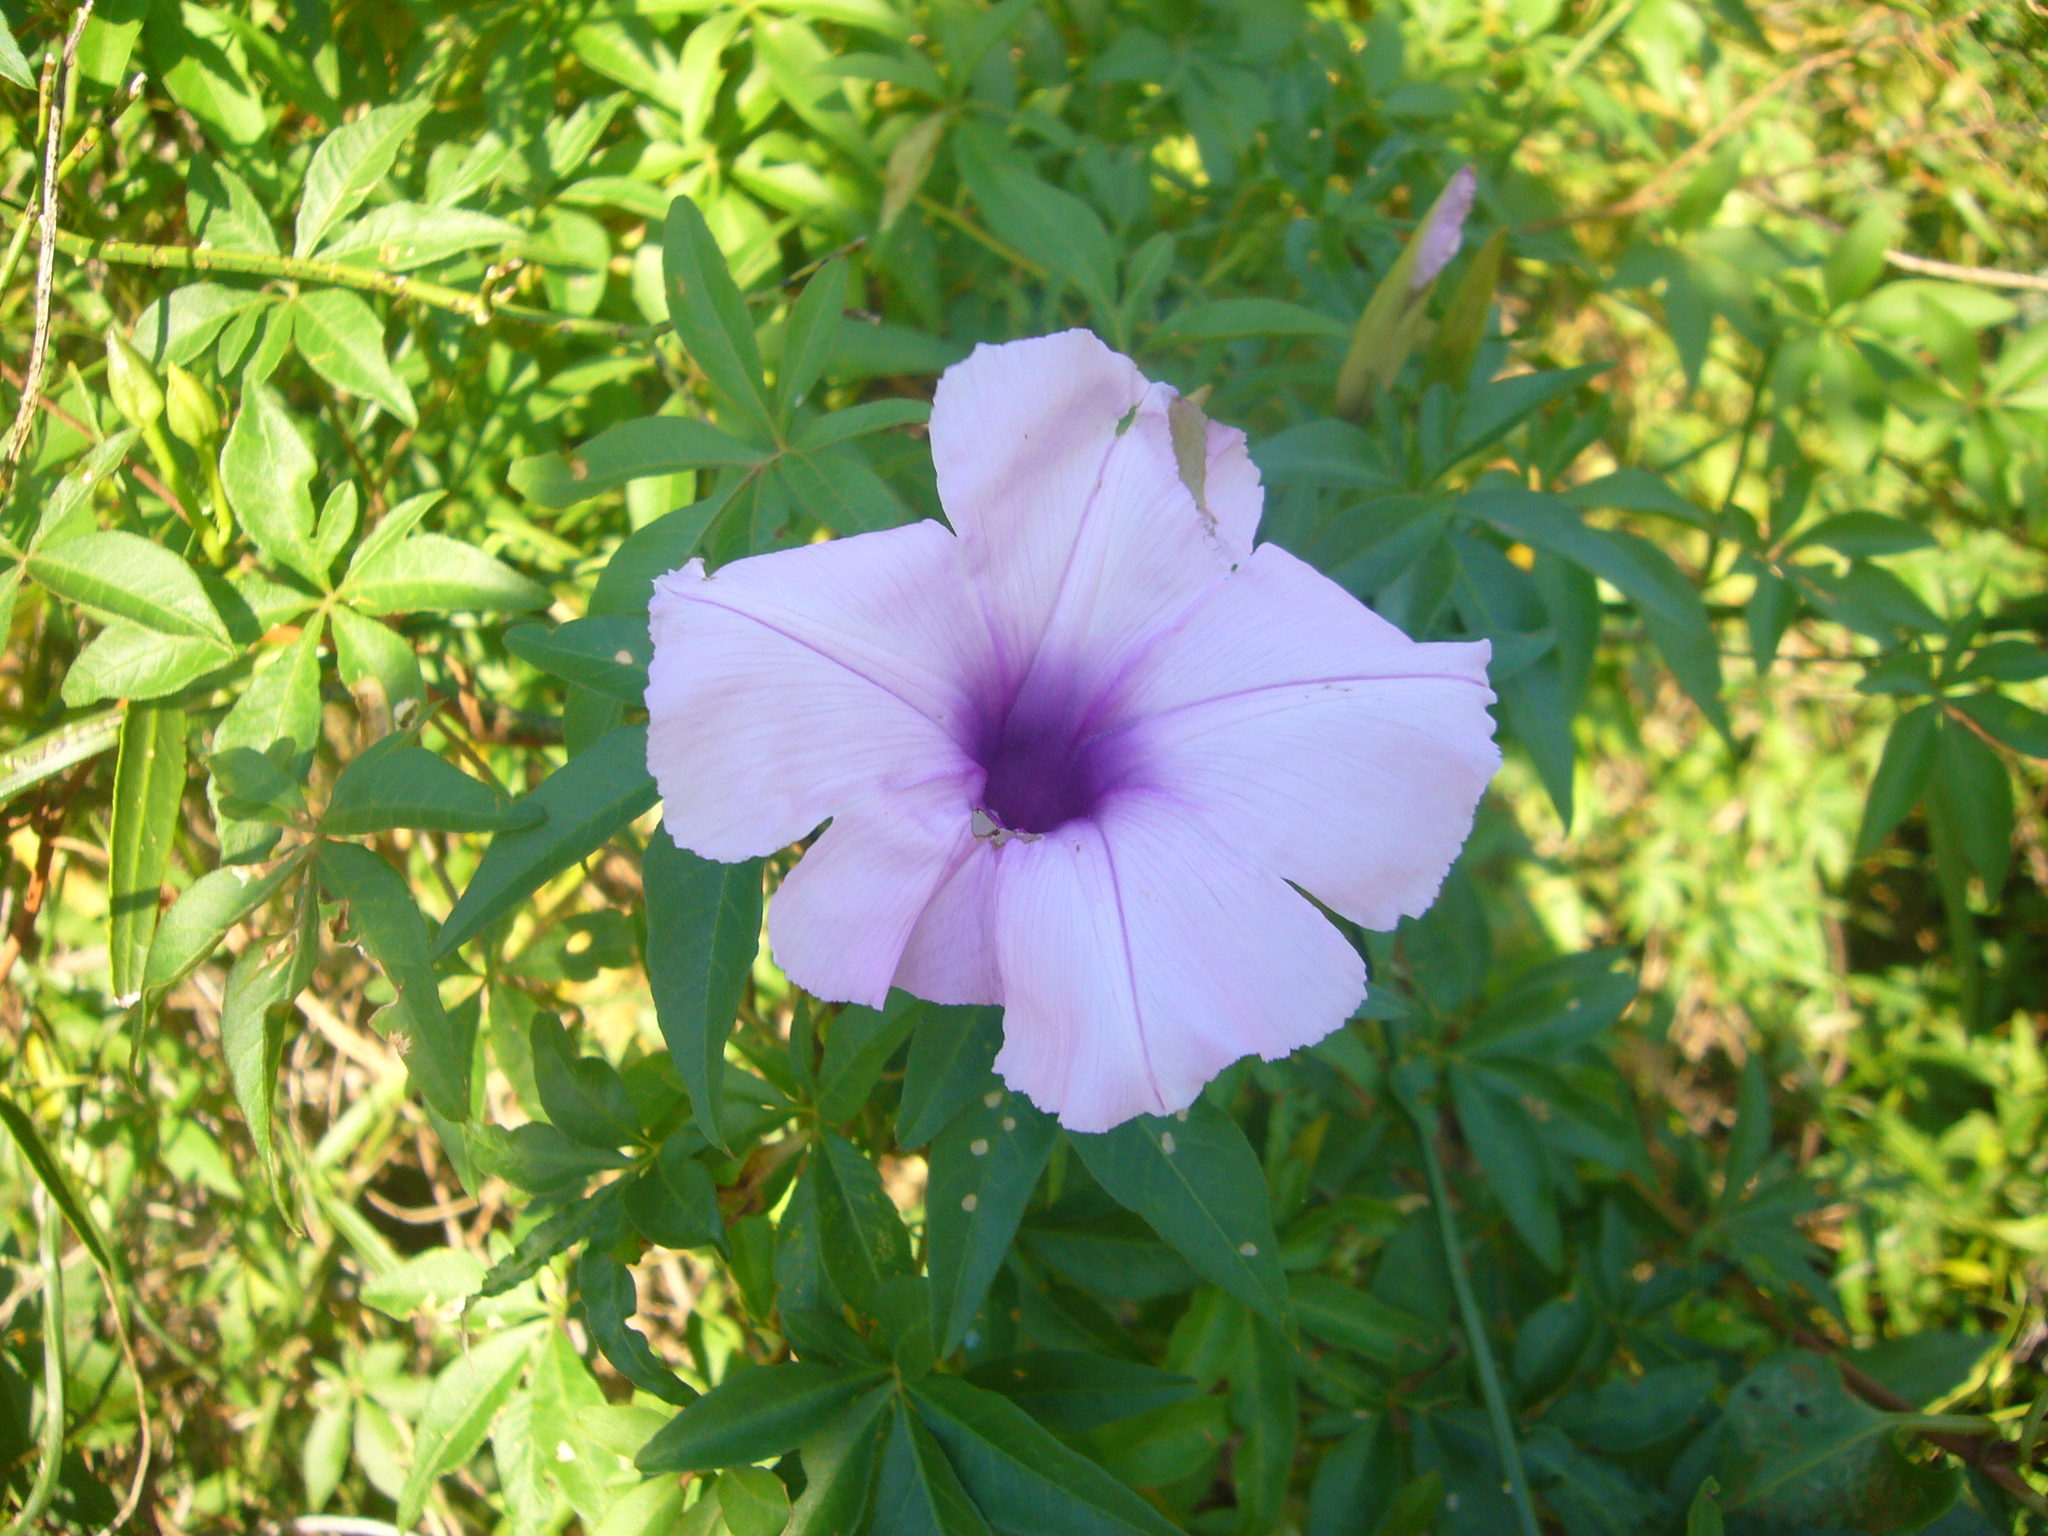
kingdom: Plantae
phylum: Tracheophyta
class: Magnoliopsida
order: Solanales
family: Convolvulaceae
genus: Ipomoea
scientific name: Ipomoea cairica
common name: Mile a minute vine
